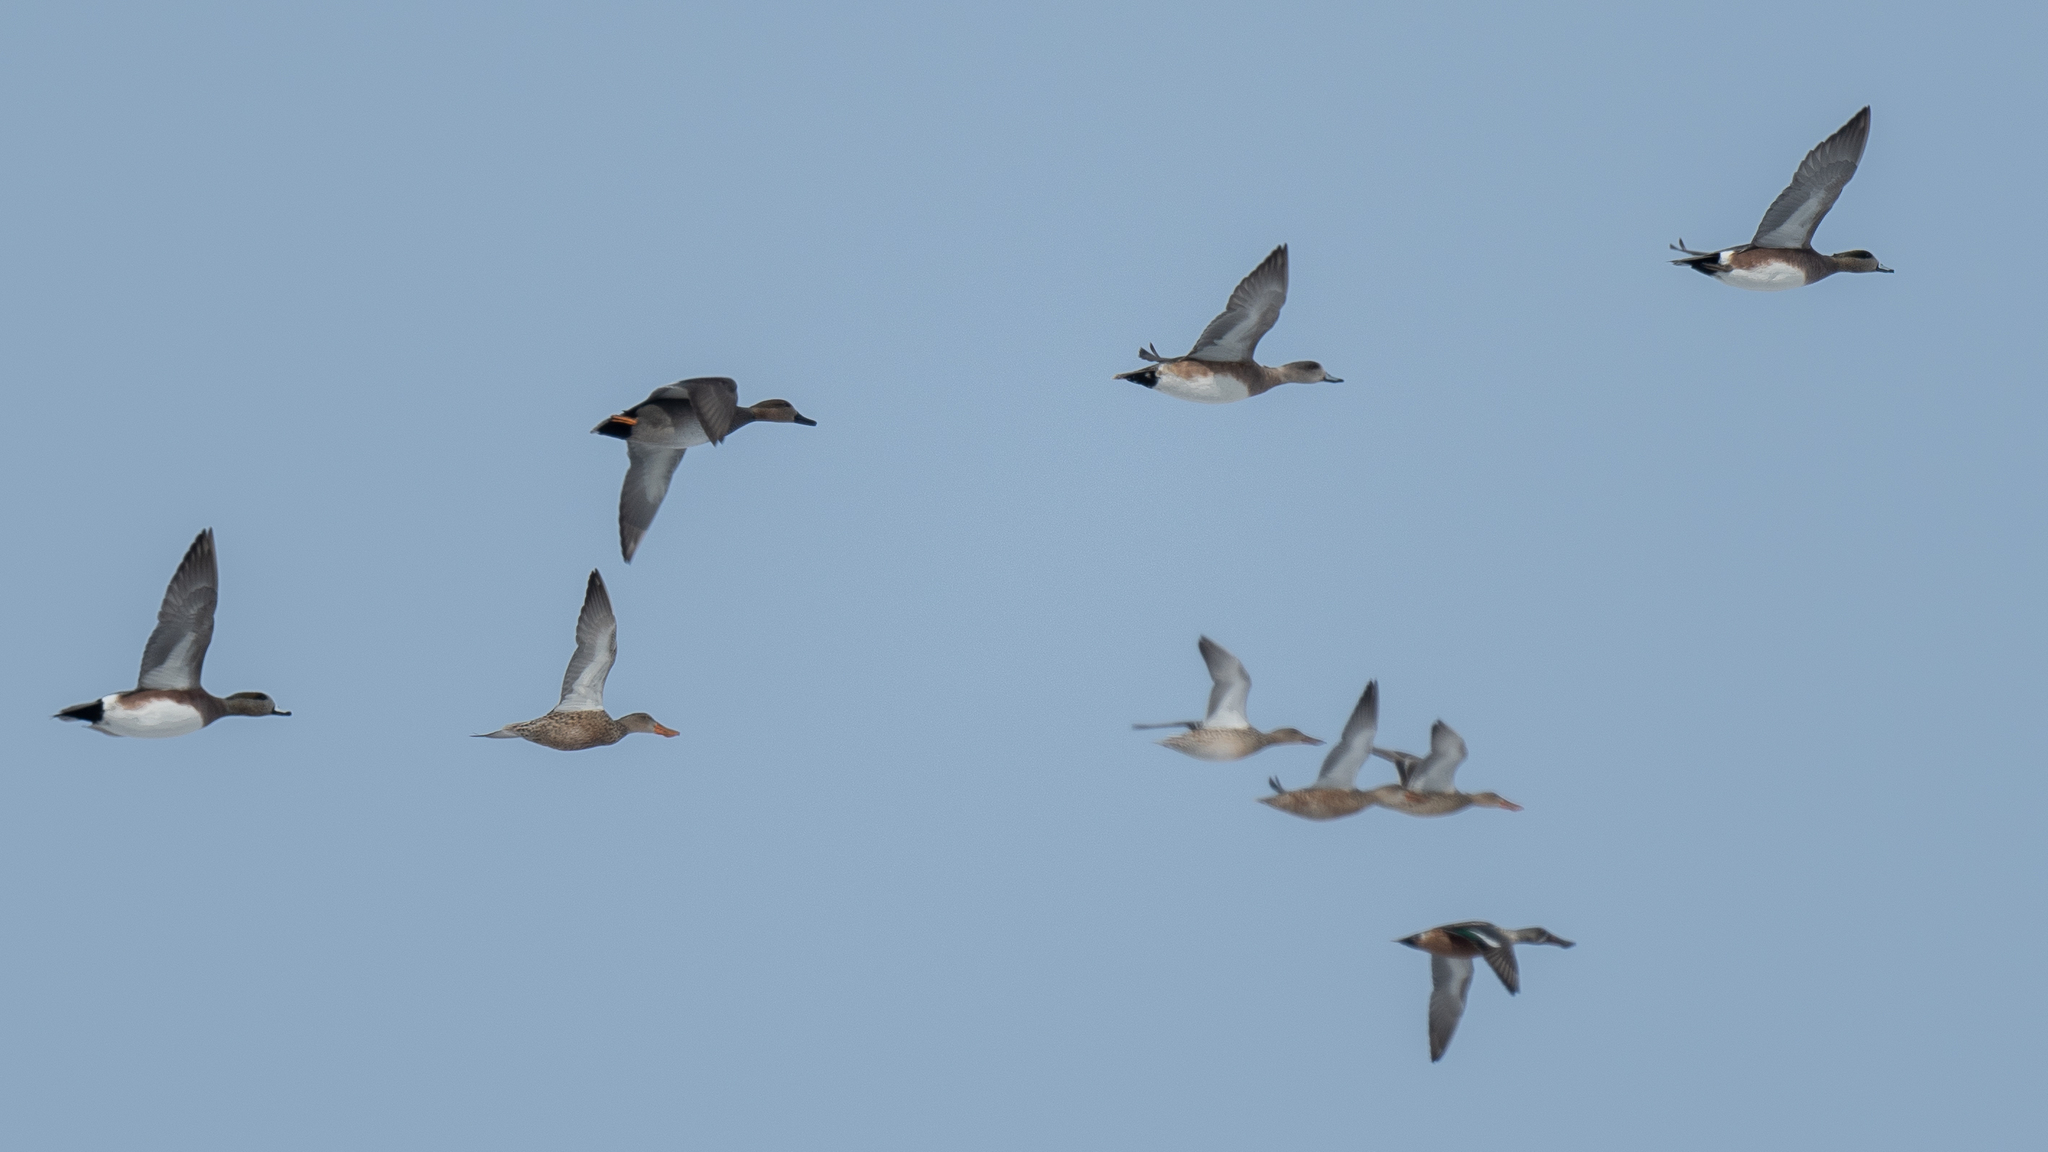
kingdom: Animalia
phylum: Chordata
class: Aves
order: Anseriformes
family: Anatidae
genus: Spatula
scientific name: Spatula clypeata
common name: Northern shoveler
